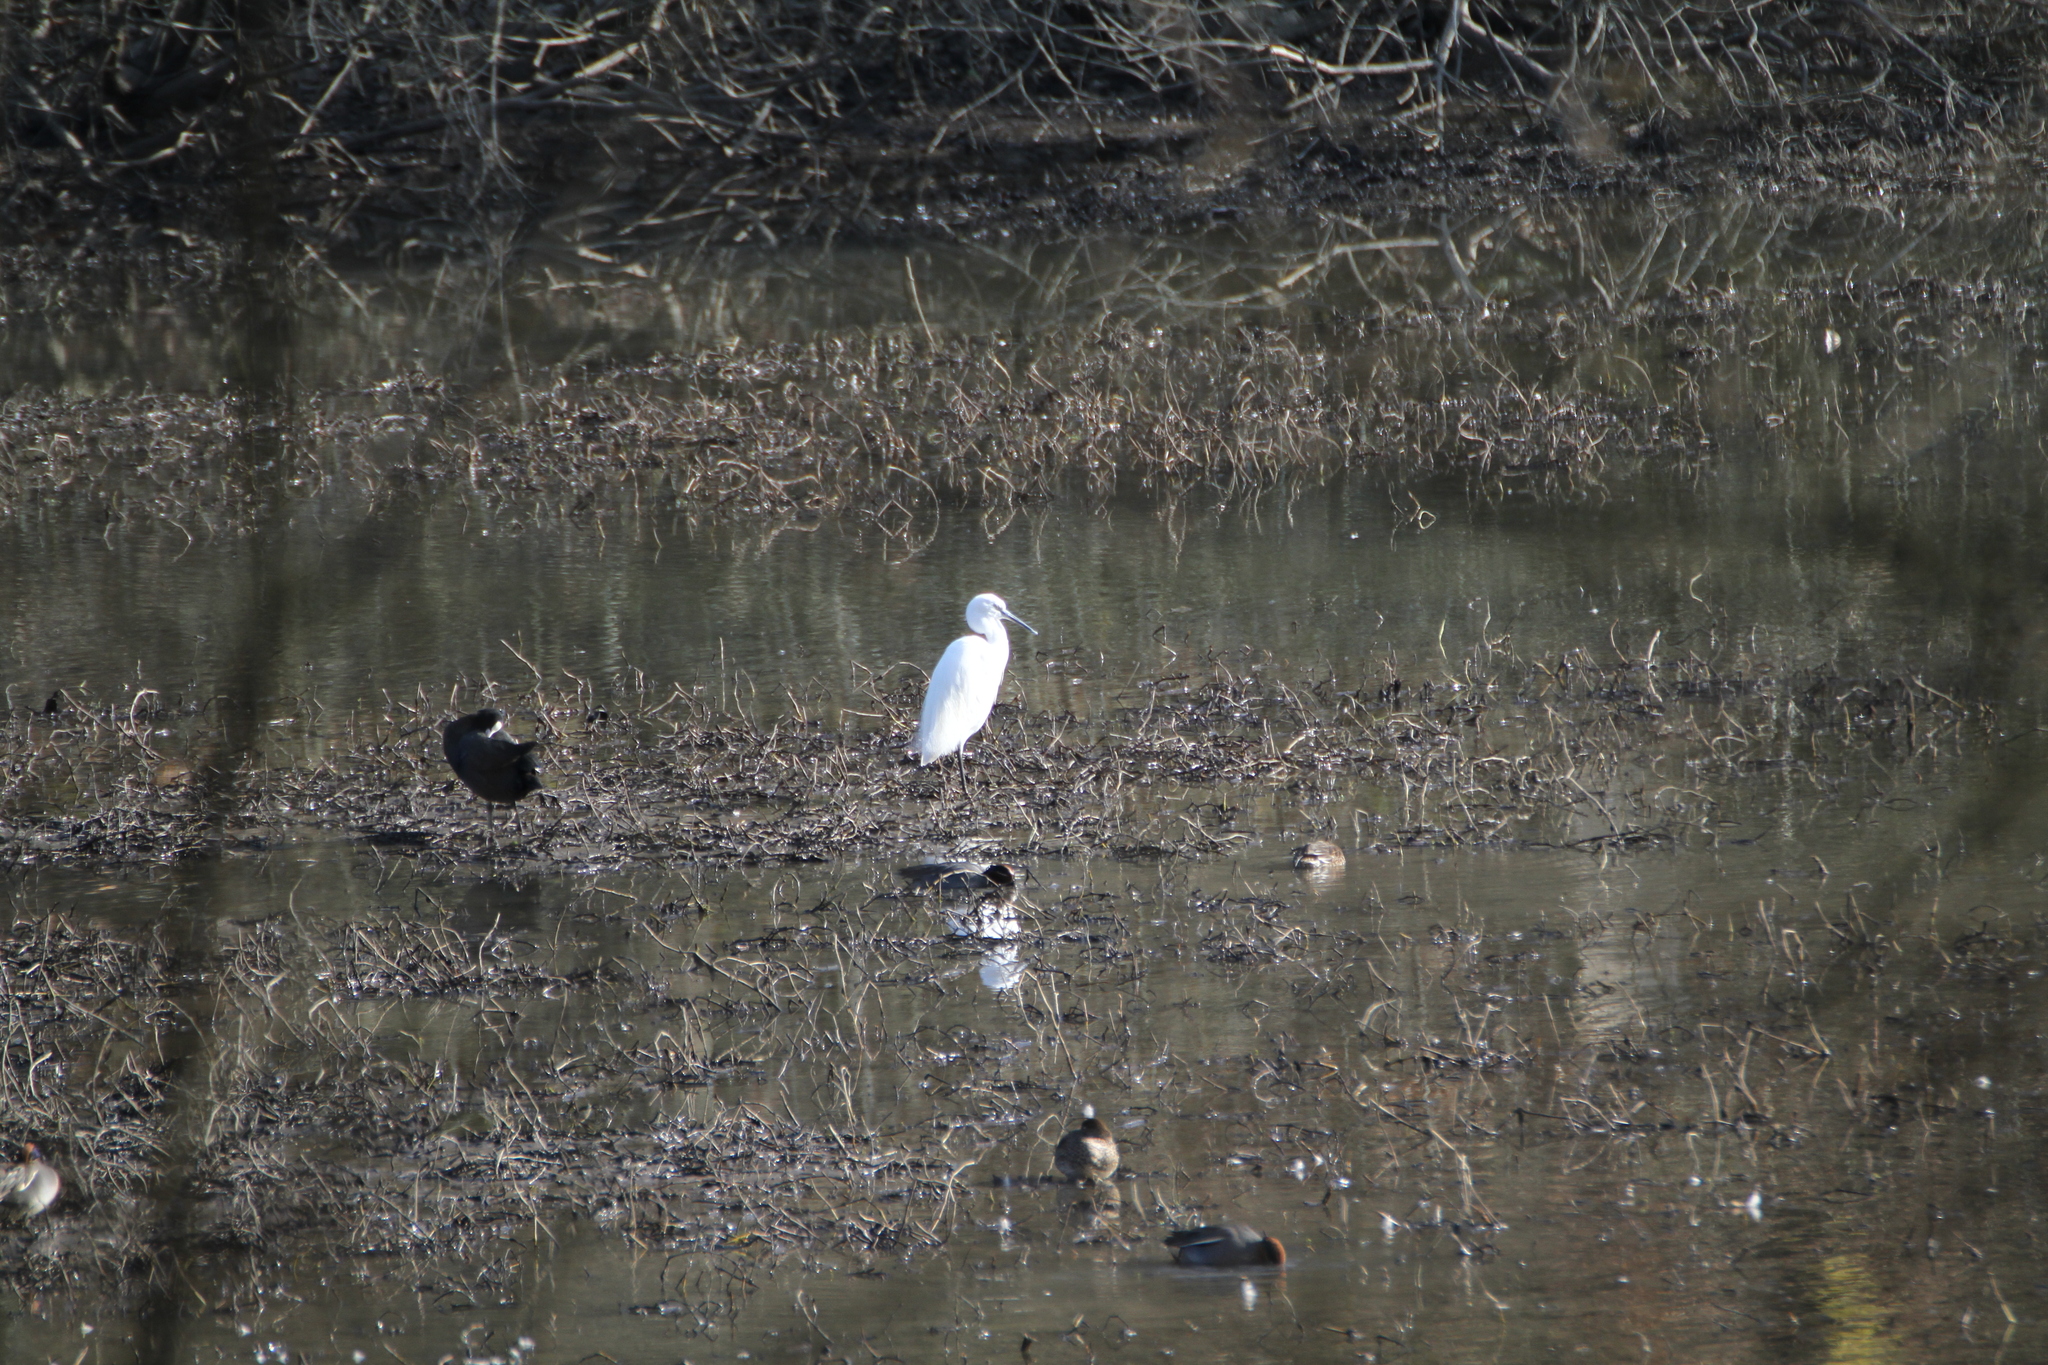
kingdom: Animalia
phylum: Chordata
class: Aves
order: Pelecaniformes
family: Ardeidae
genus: Egretta
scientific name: Egretta garzetta
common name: Little egret
